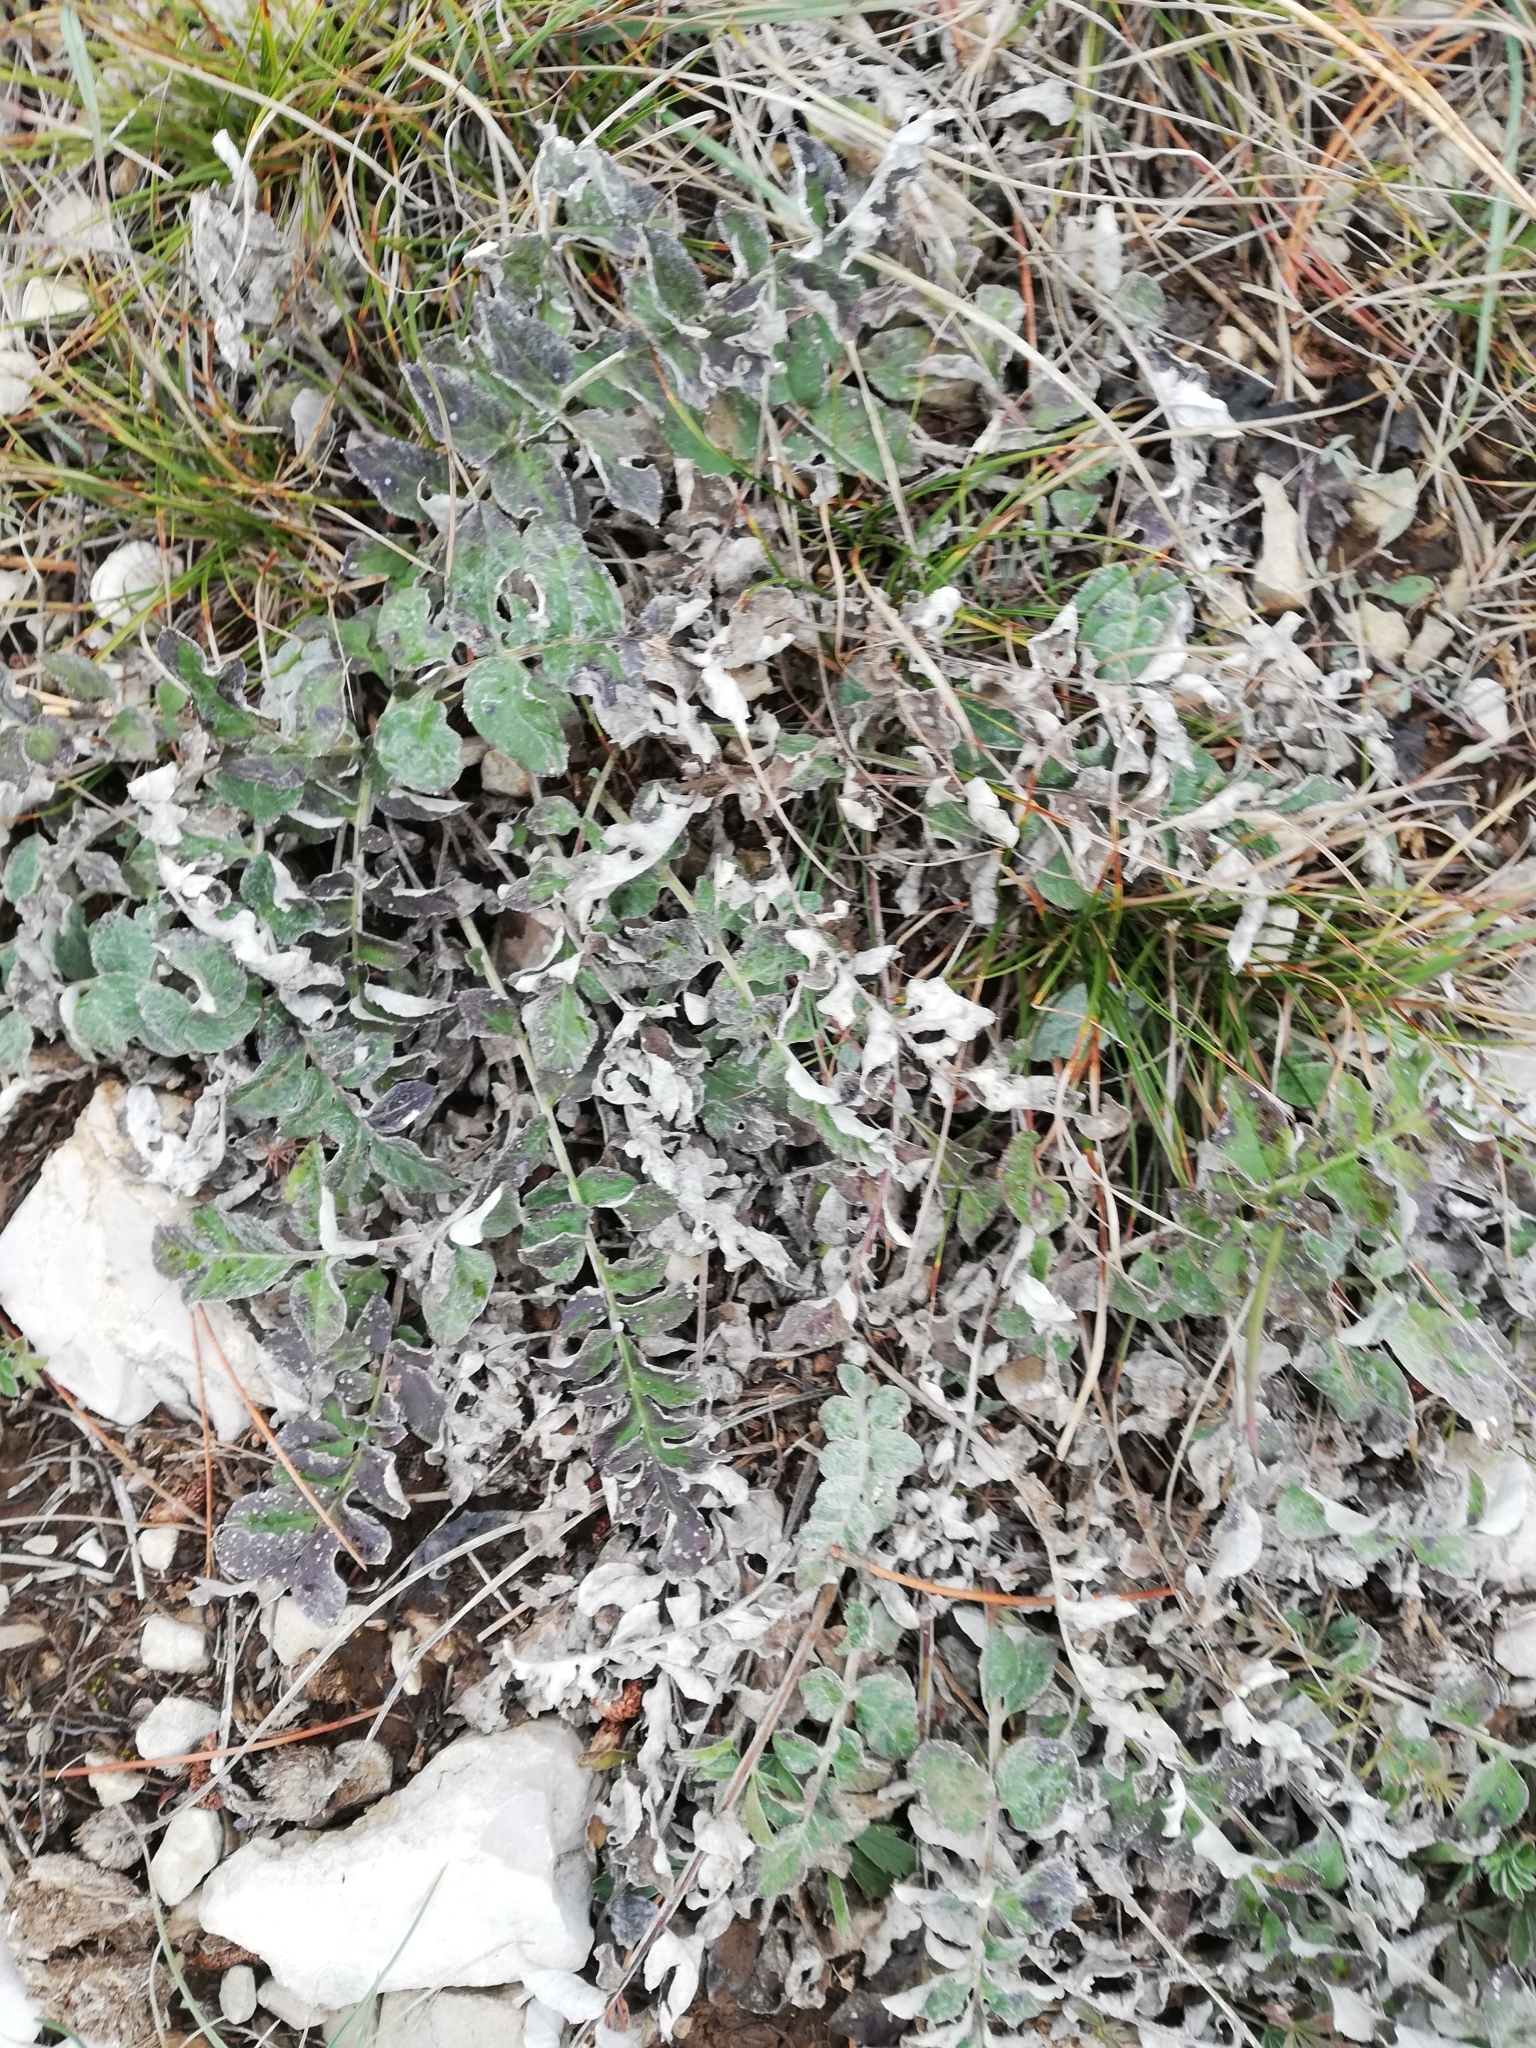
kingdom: Plantae
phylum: Tracheophyta
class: Magnoliopsida
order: Asterales
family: Asteraceae
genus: Psephellus
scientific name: Psephellus declinatus
